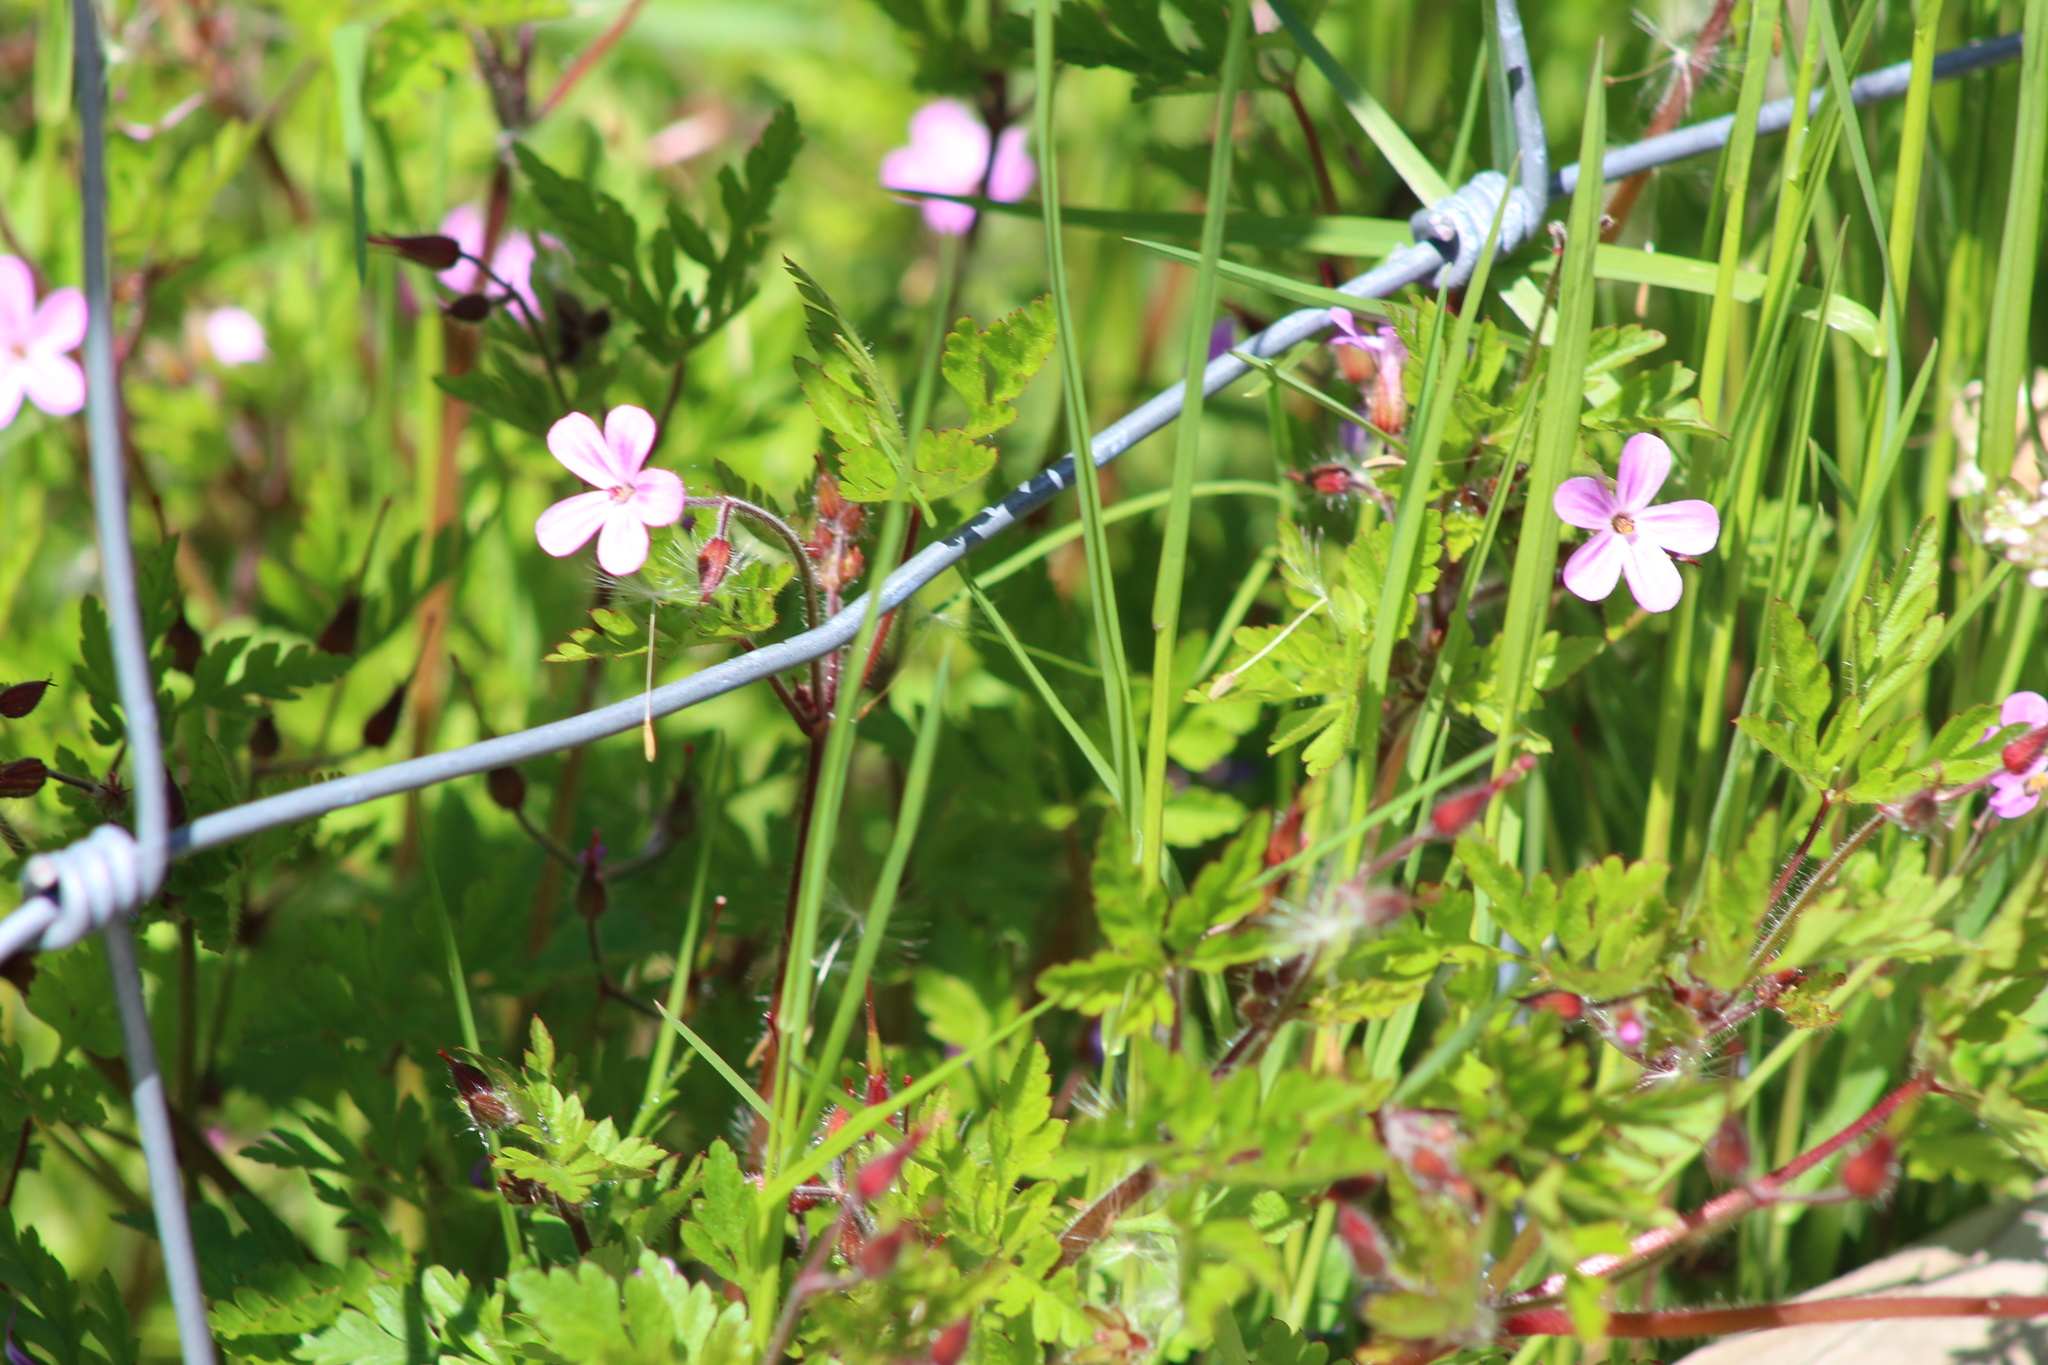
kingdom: Plantae
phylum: Tracheophyta
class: Magnoliopsida
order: Geraniales
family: Geraniaceae
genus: Geranium
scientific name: Geranium robertianum
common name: Herb-robert
